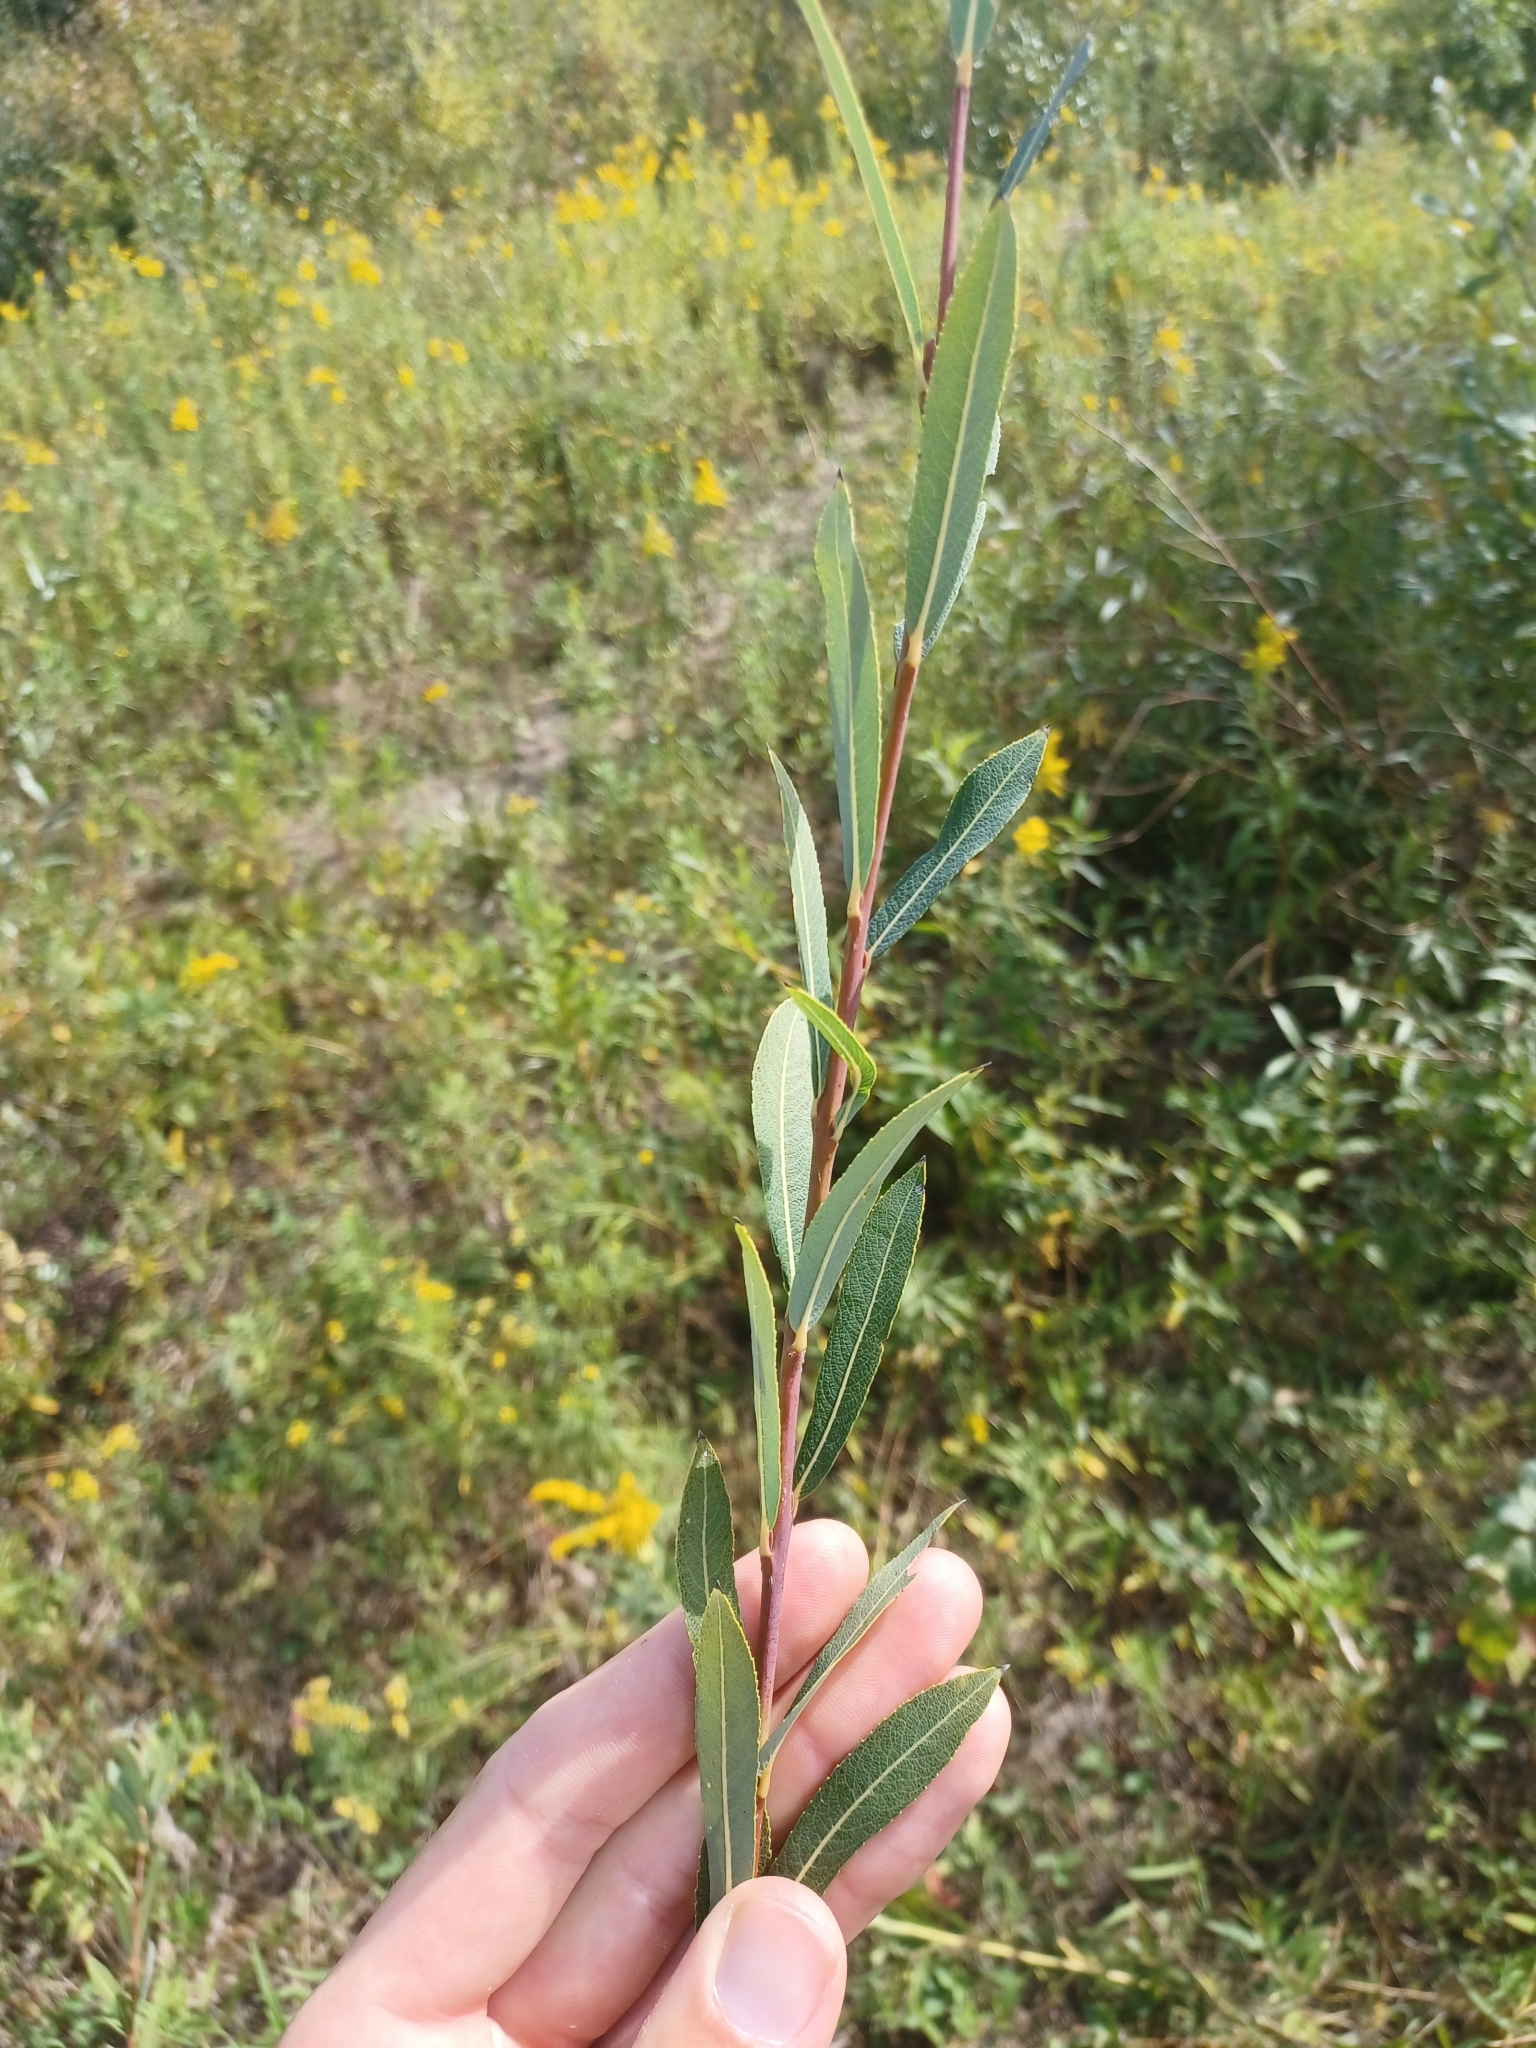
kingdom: Plantae
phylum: Tracheophyta
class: Magnoliopsida
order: Malpighiales
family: Salicaceae
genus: Salix
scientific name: Salix purpurea
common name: Purple willow
